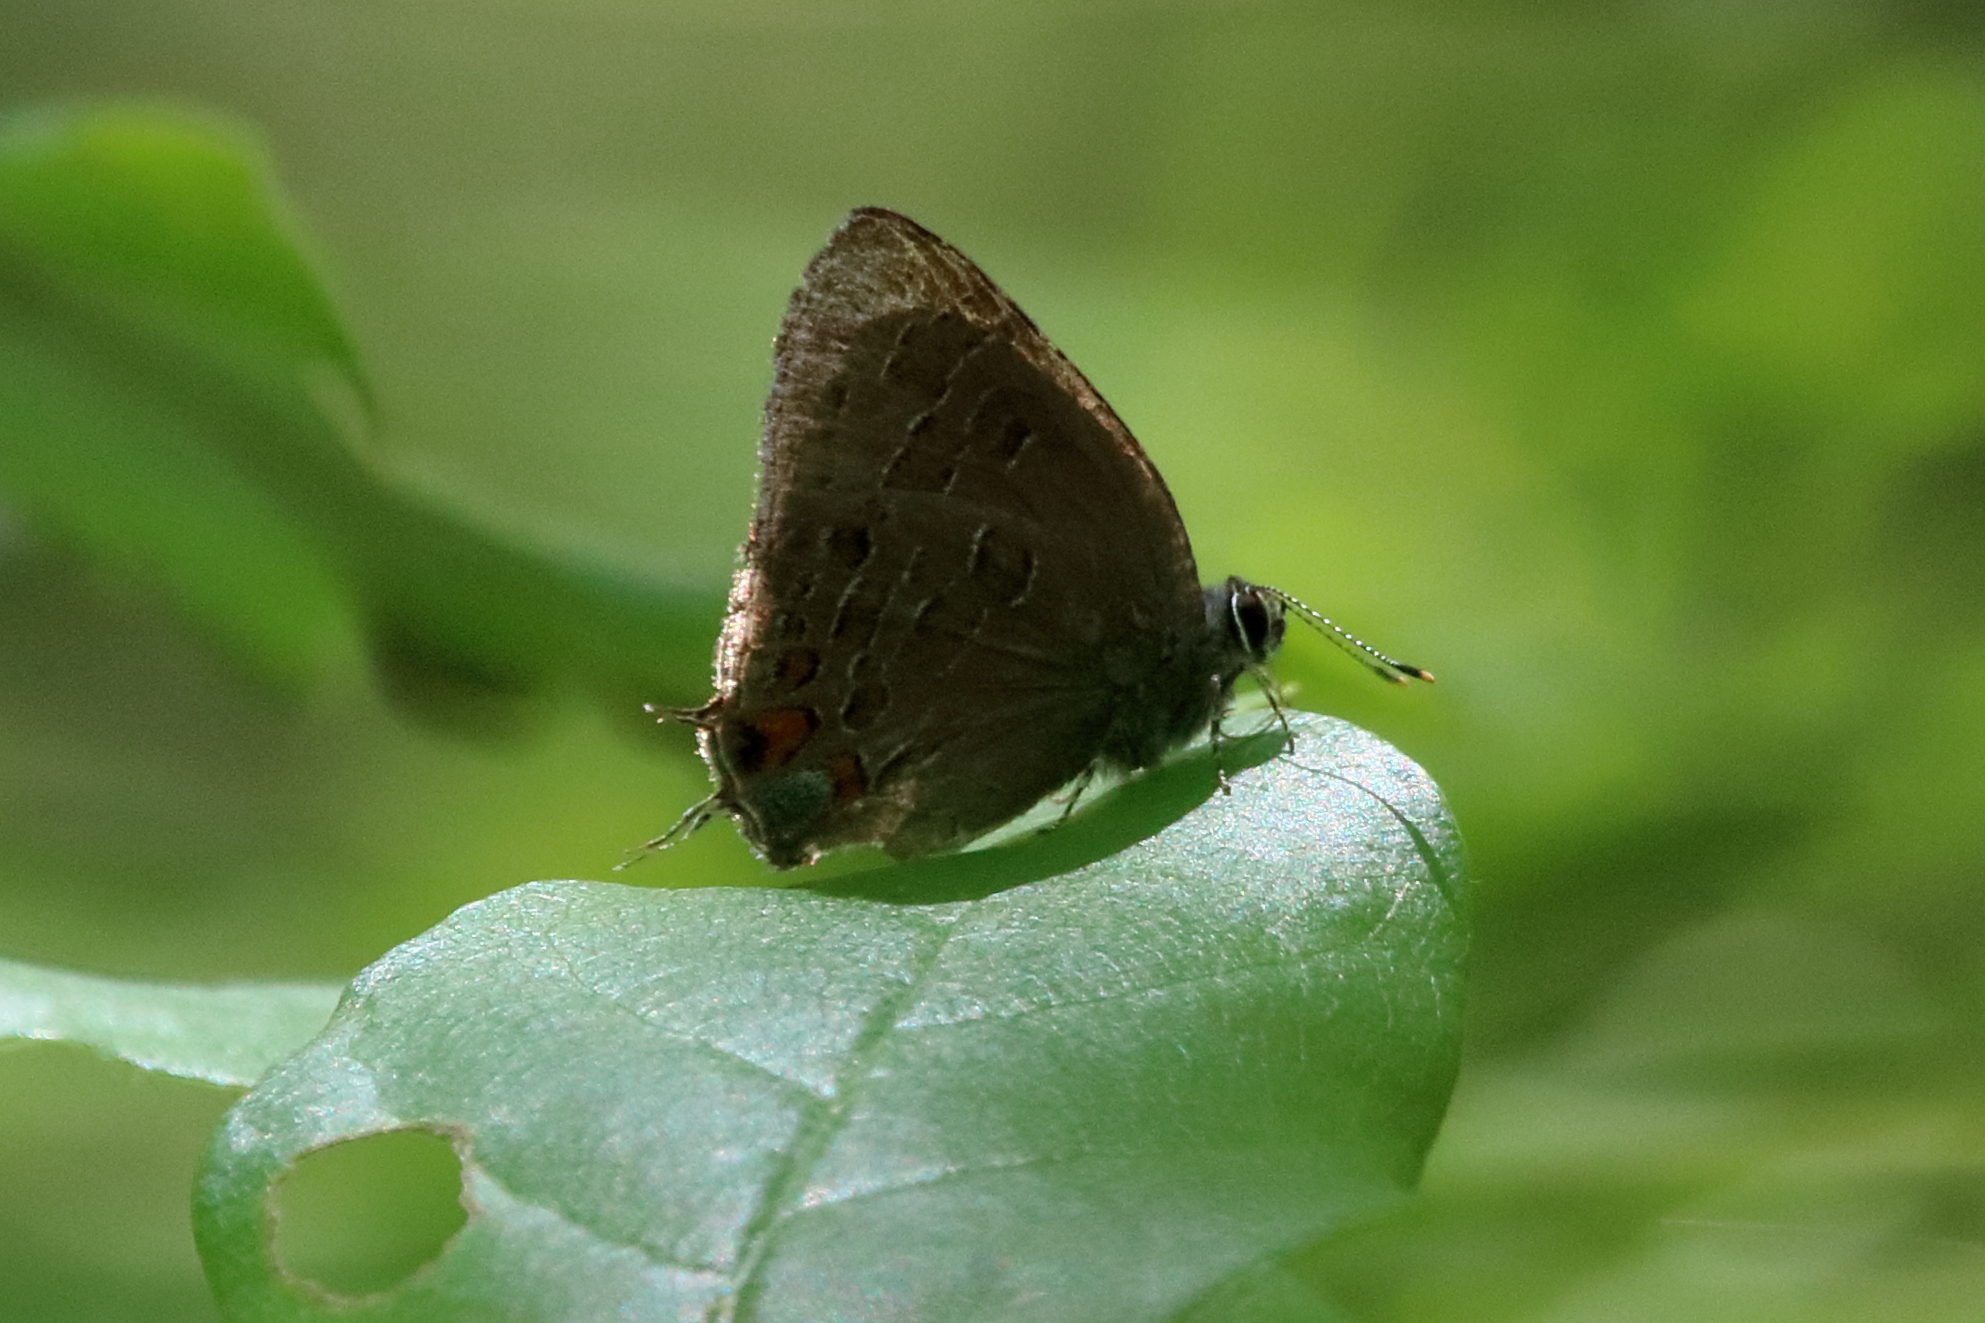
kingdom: Animalia
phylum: Arthropoda
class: Insecta
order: Lepidoptera
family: Lycaenidae
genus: Satyrium
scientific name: Satyrium liparops
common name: Striped hairstreak
